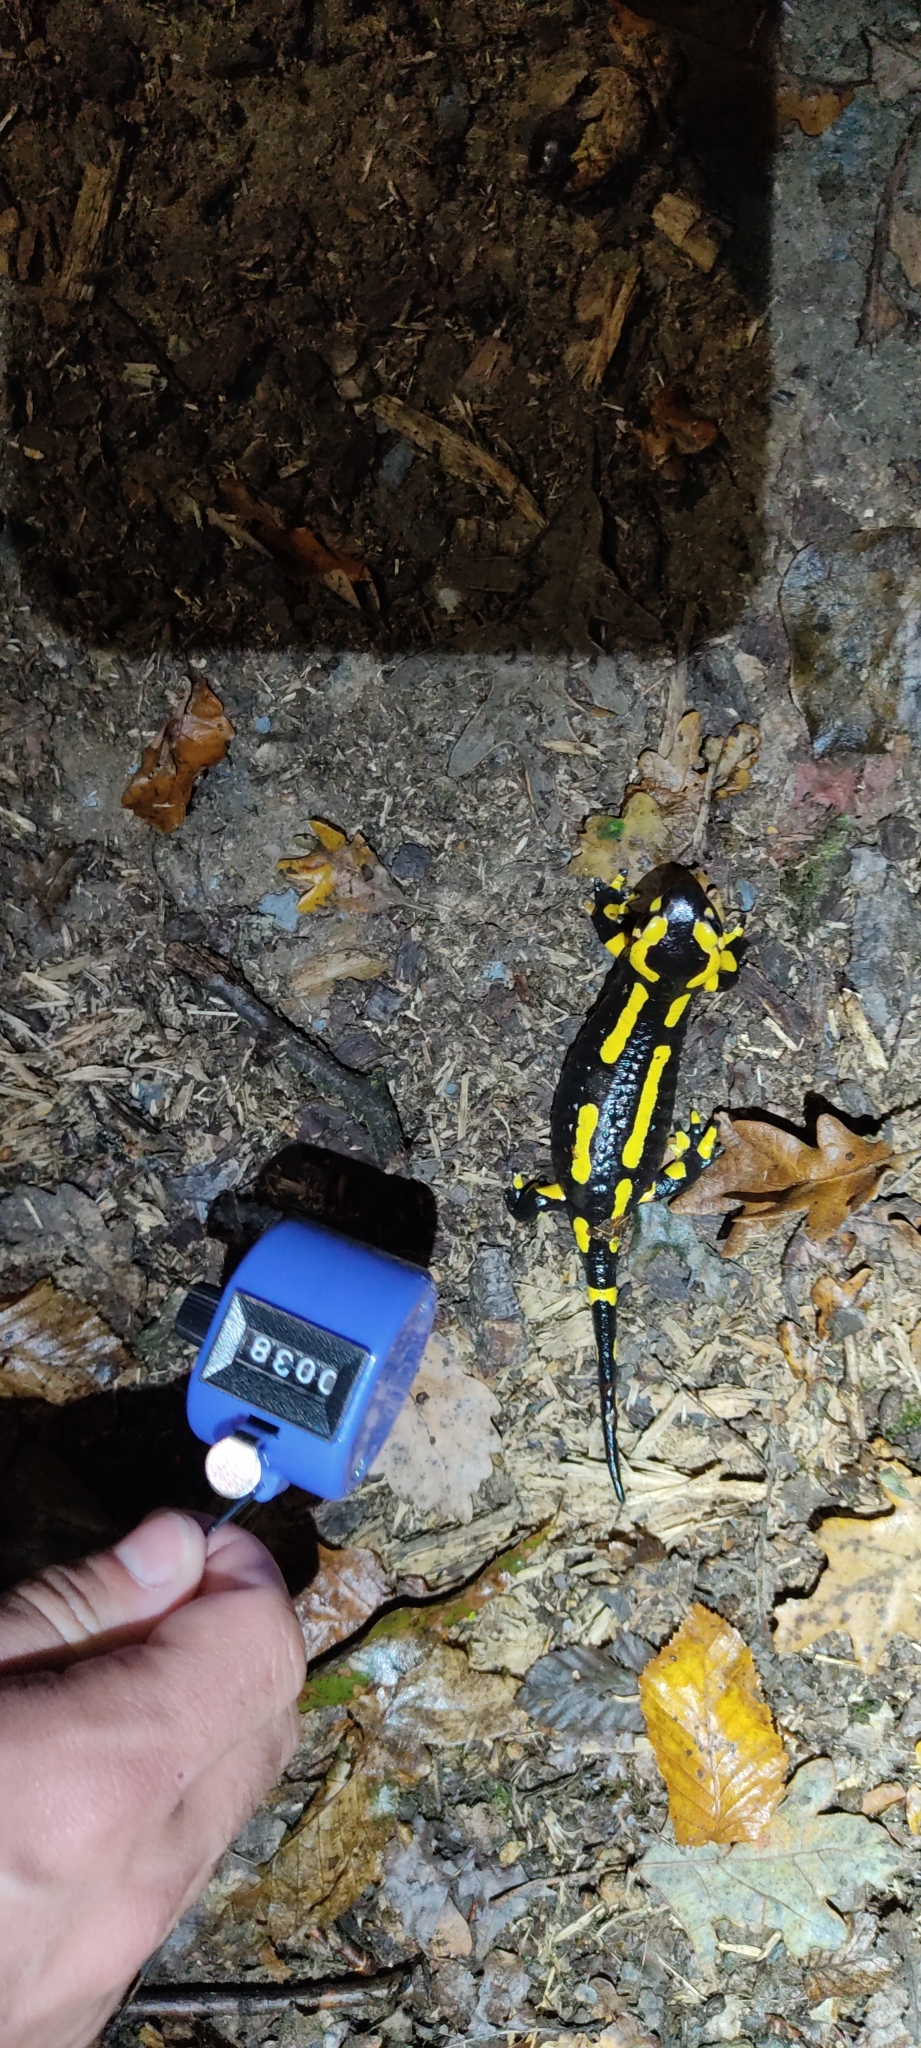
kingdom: Animalia
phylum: Chordata
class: Amphibia
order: Caudata
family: Salamandridae
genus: Salamandra
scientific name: Salamandra salamandra
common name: Fire salamander
